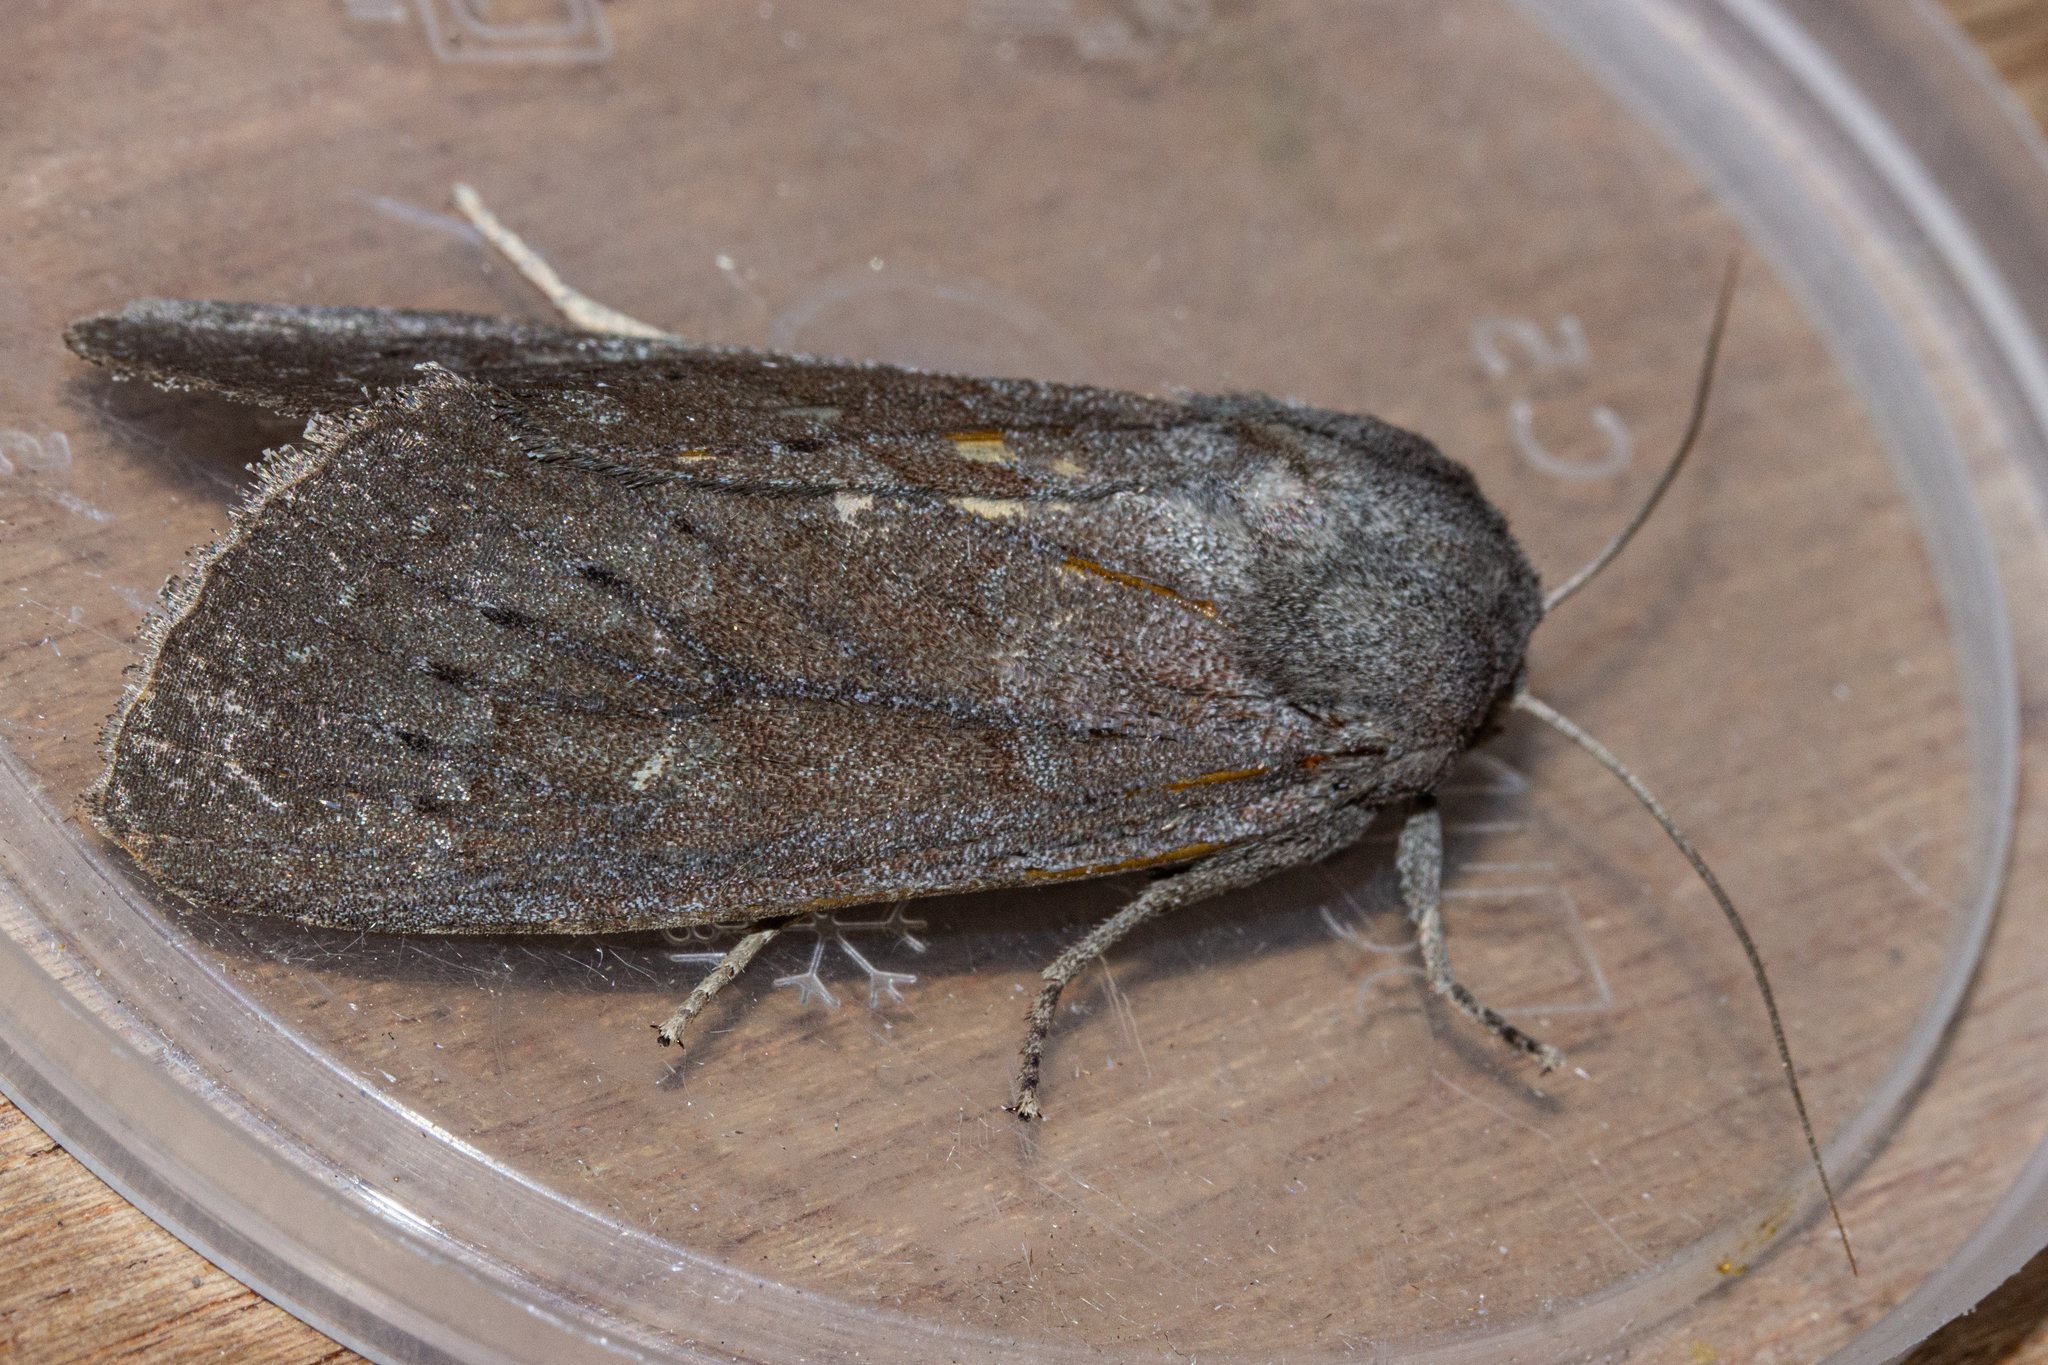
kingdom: Animalia
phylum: Arthropoda
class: Insecta
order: Lepidoptera
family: Noctuidae
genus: Ichneutica
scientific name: Ichneutica nullifera
